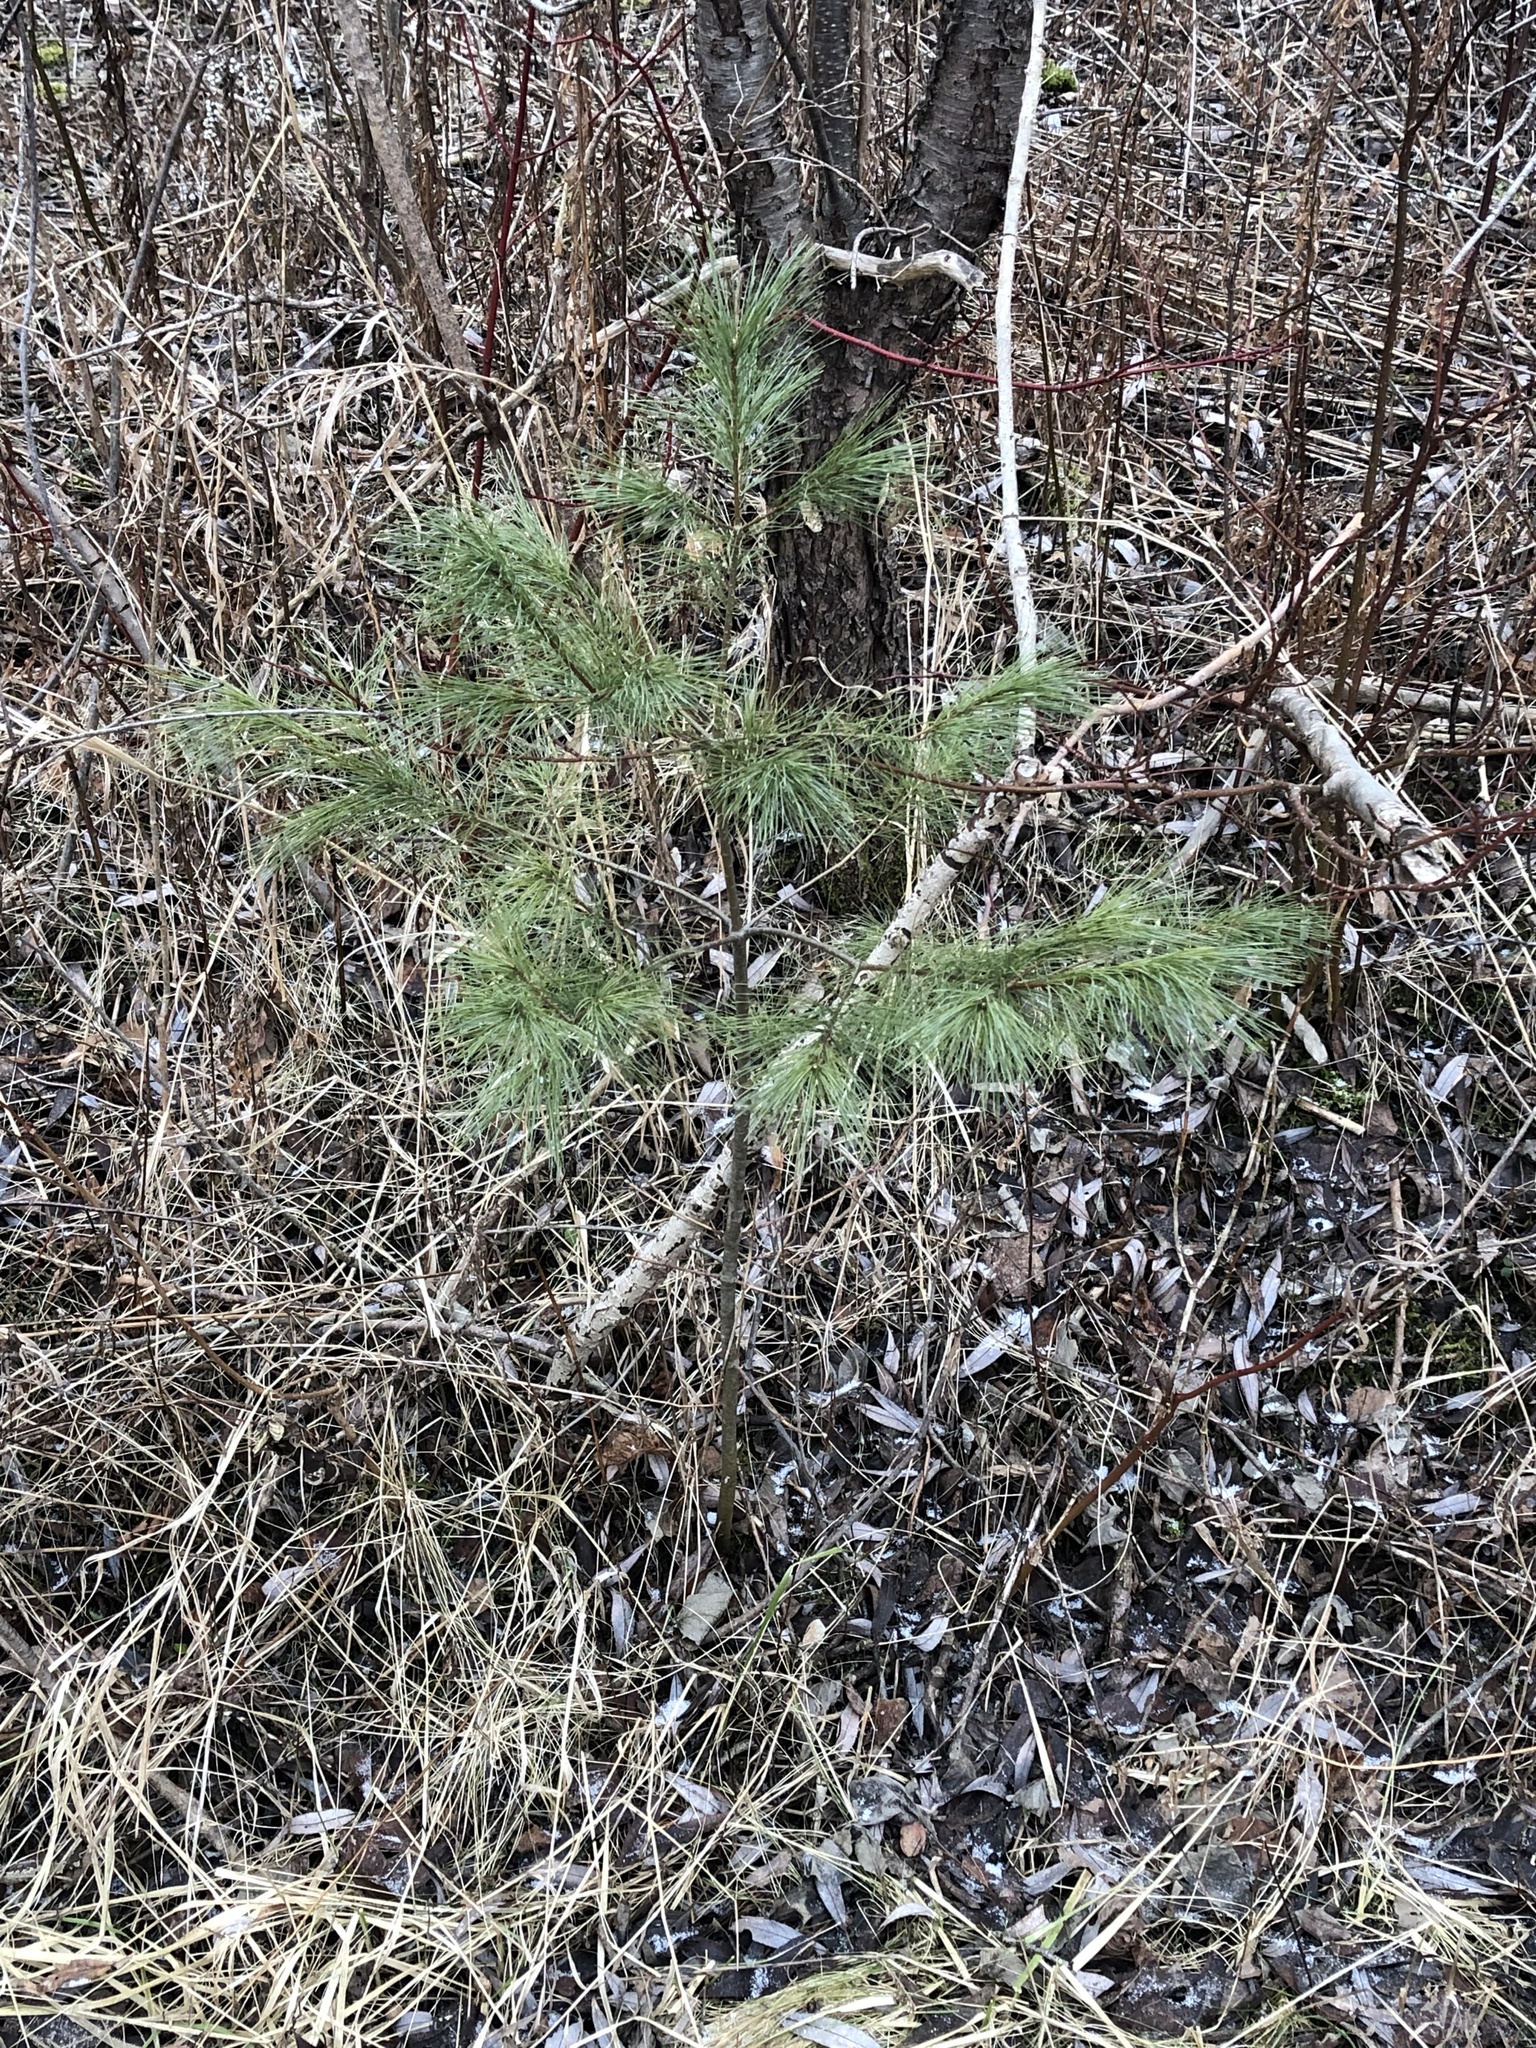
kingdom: Plantae
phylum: Tracheophyta
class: Pinopsida
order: Pinales
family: Pinaceae
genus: Pinus
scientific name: Pinus strobus
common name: Weymouth pine
